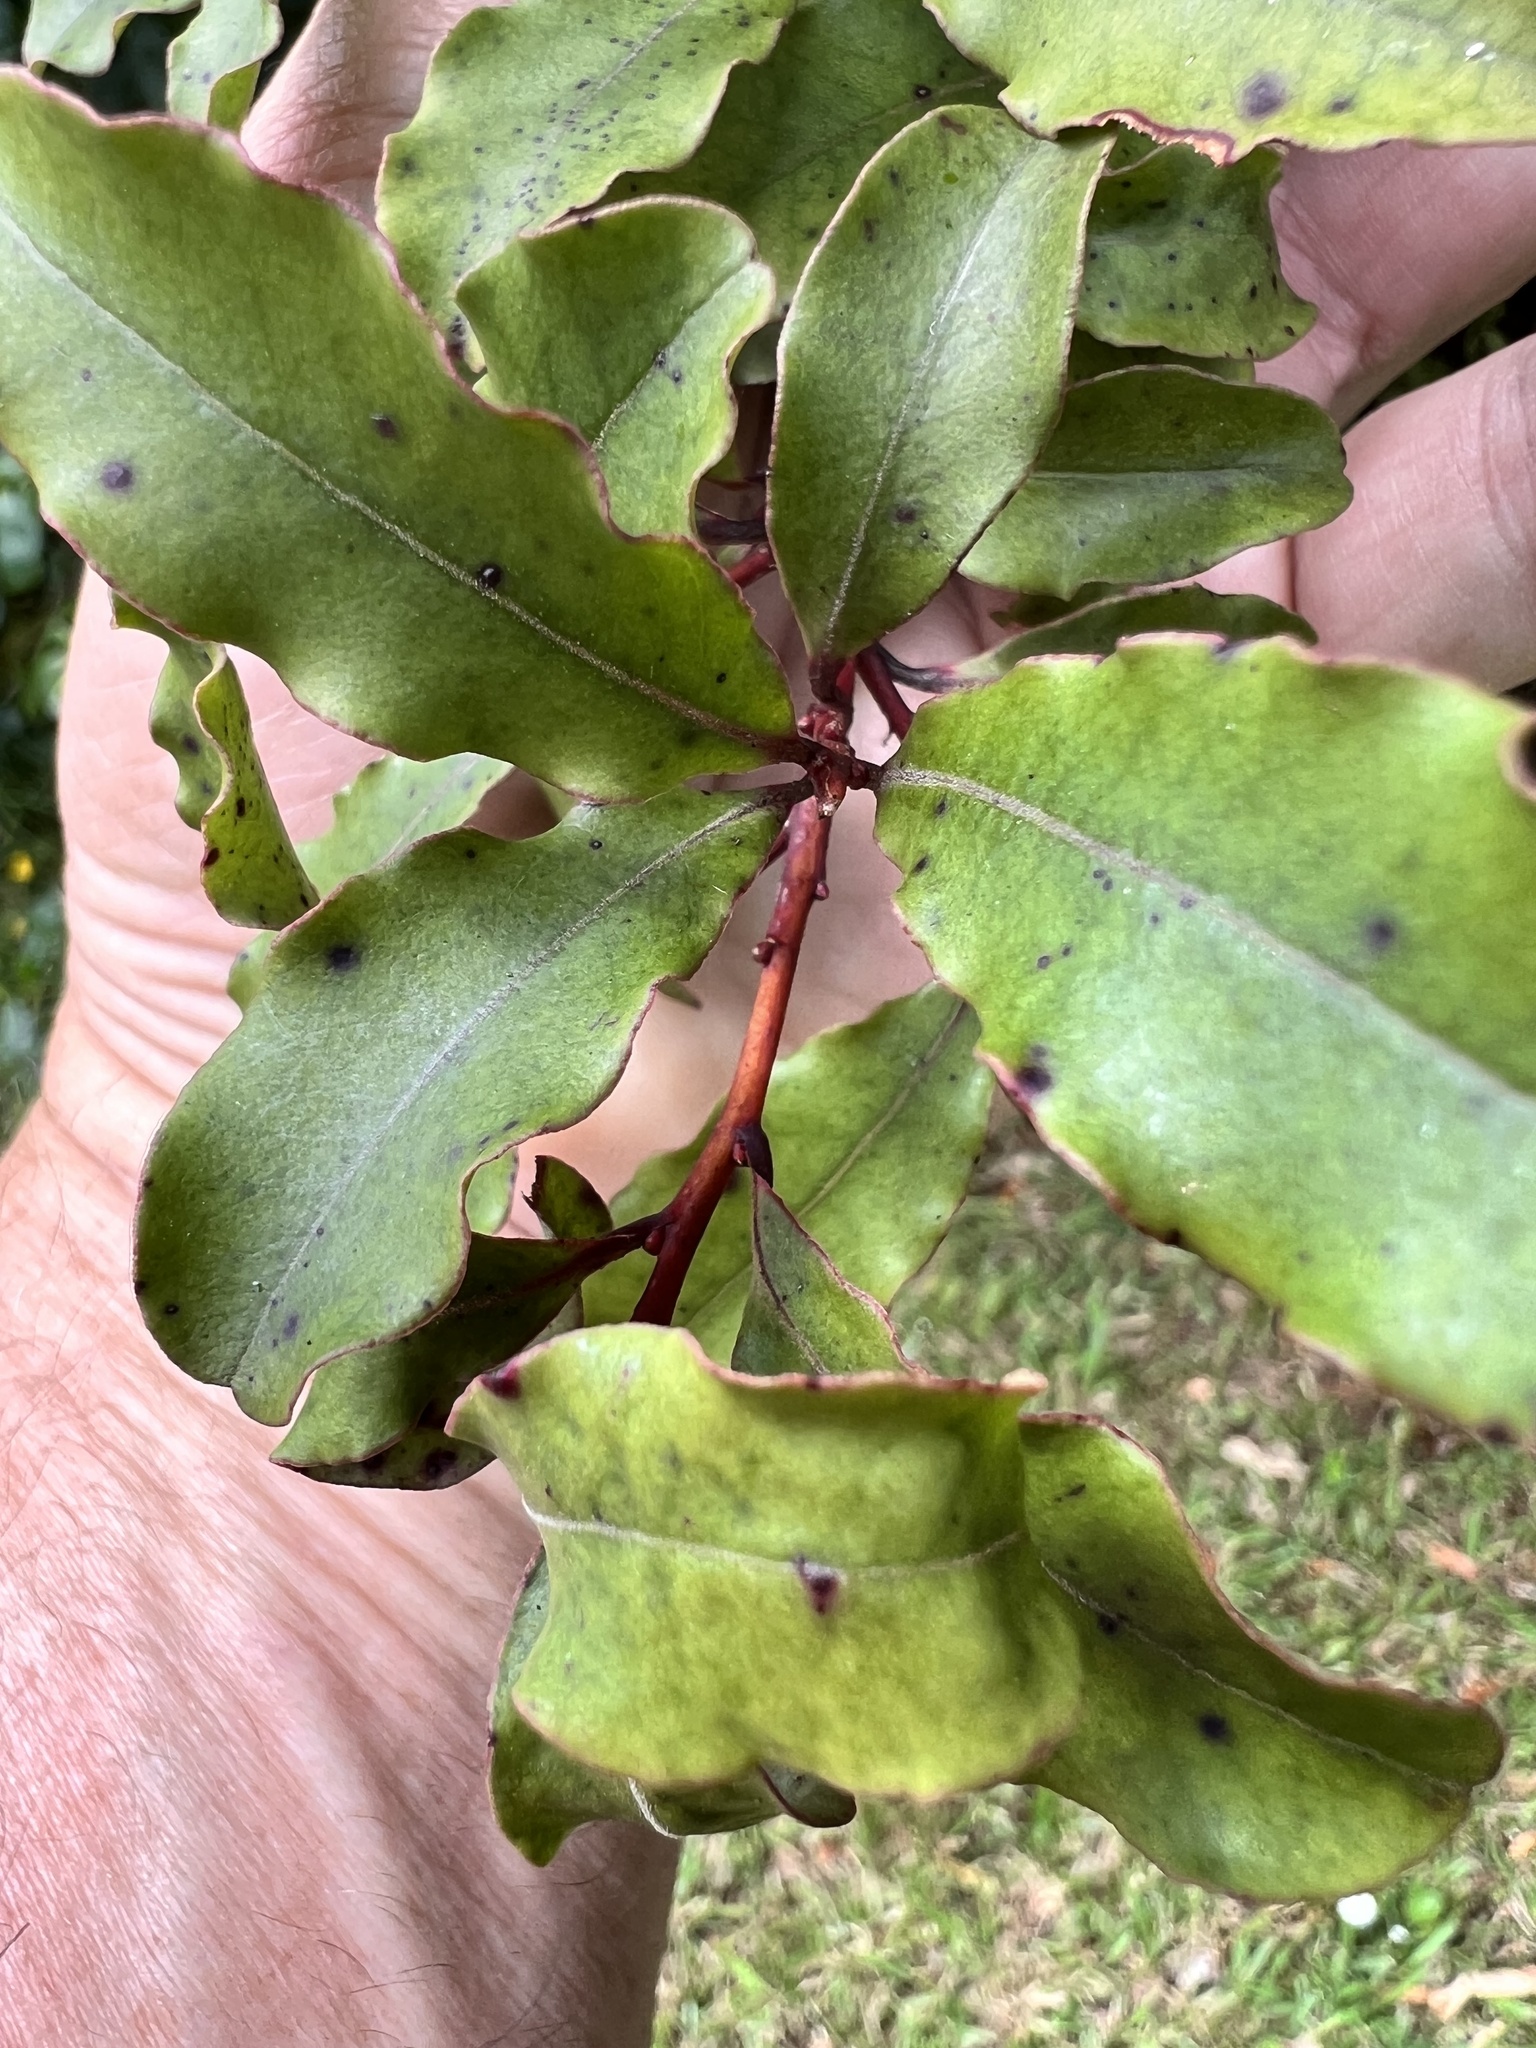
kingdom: Plantae
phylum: Tracheophyta
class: Magnoliopsida
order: Ericales
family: Primulaceae
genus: Myrsine
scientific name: Myrsine australis
